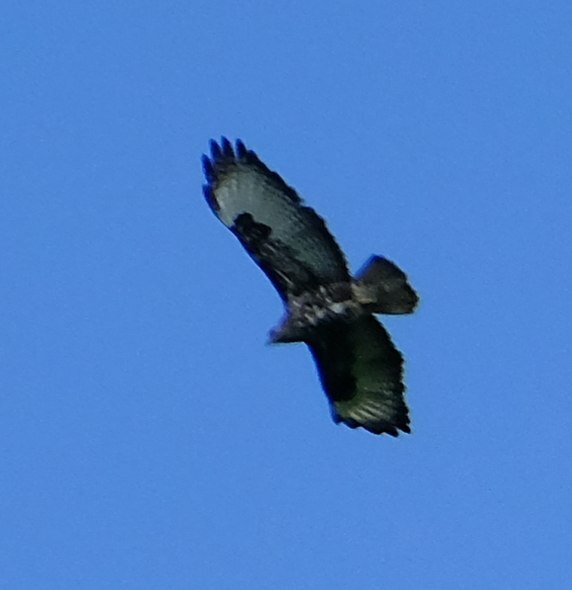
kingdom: Animalia
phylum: Chordata
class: Aves
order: Accipitriformes
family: Accipitridae
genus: Buteo
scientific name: Buteo oreophilus
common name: Mountain buzzard
